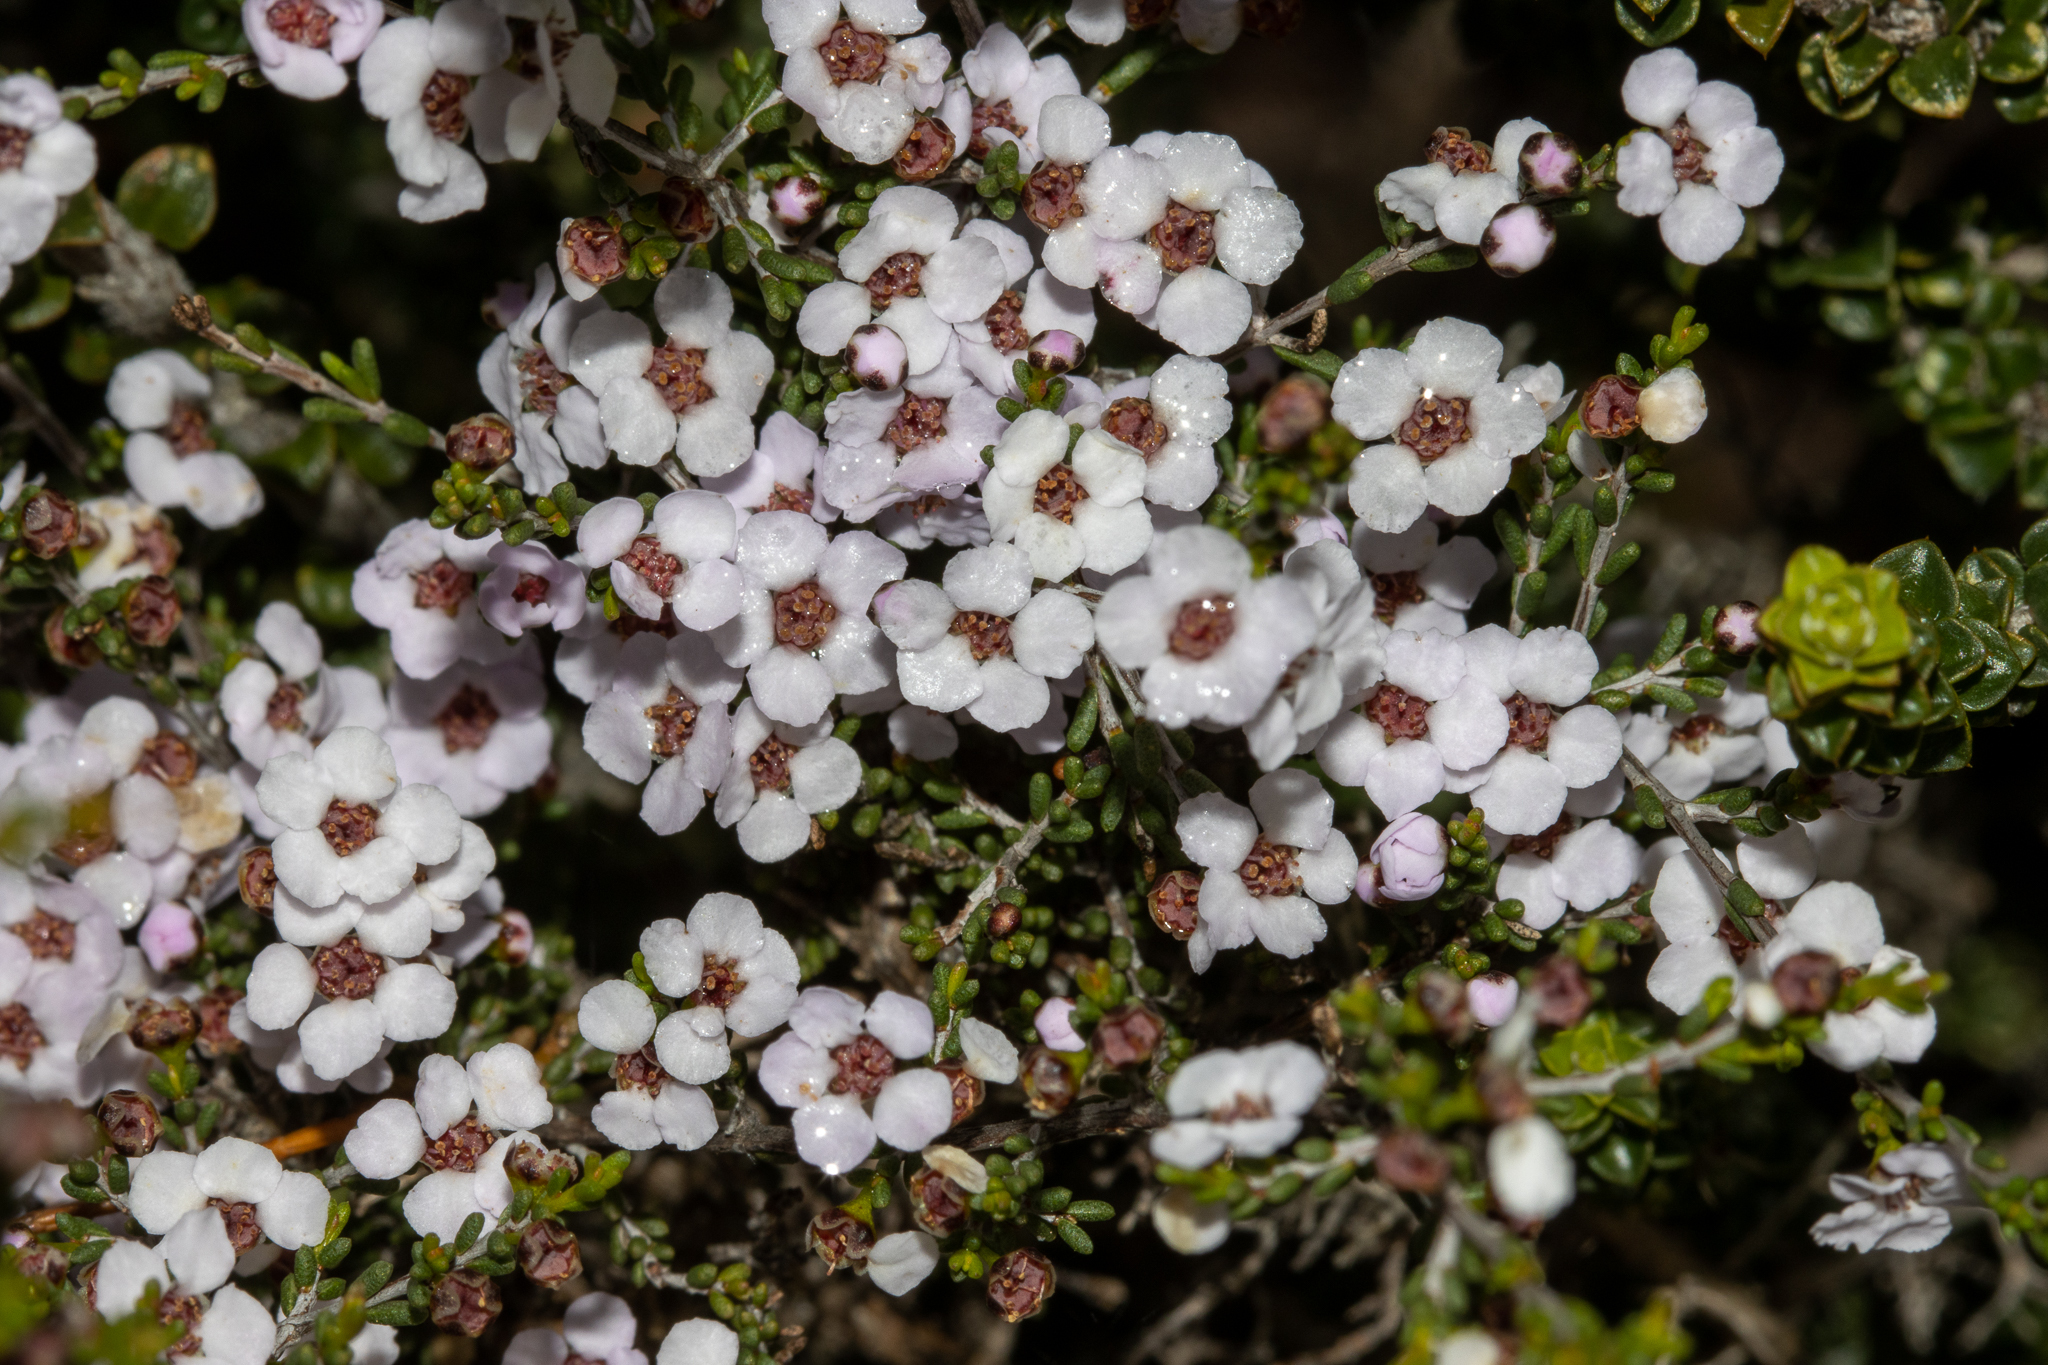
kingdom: Plantae
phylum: Tracheophyta
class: Magnoliopsida
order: Myrtales
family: Myrtaceae
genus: Rinzia
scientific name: Rinzia orientalis
